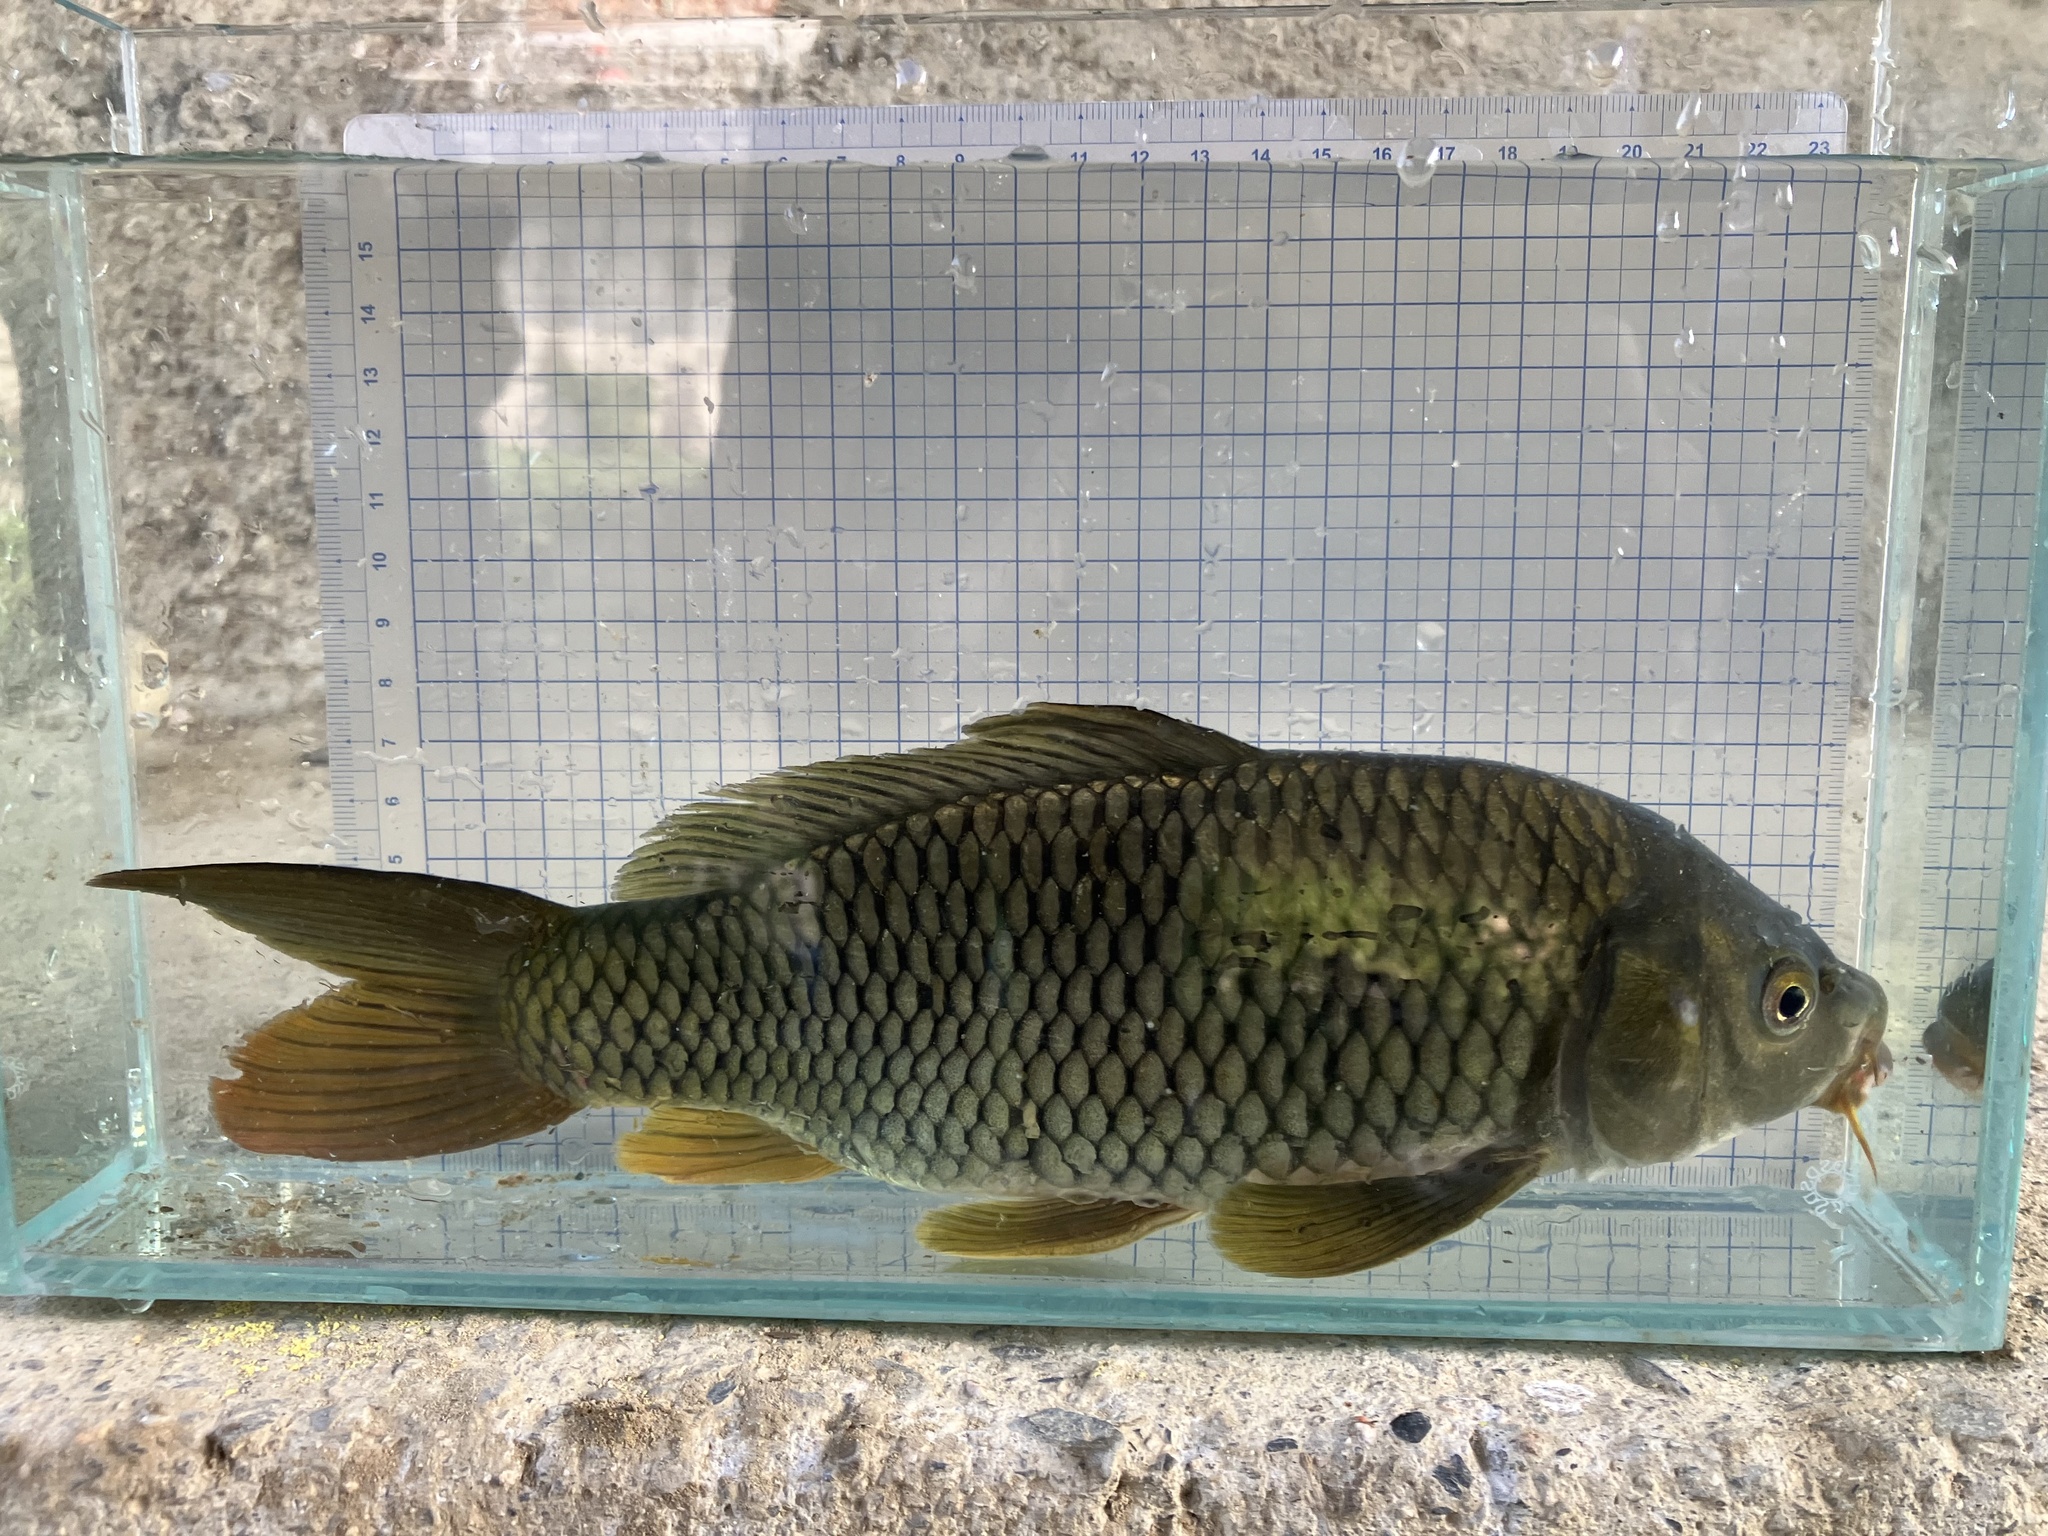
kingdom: Animalia
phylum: Chordata
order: Cypriniformes
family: Cyprinidae
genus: Cyprinus
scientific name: Cyprinus carpio
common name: Common carp
